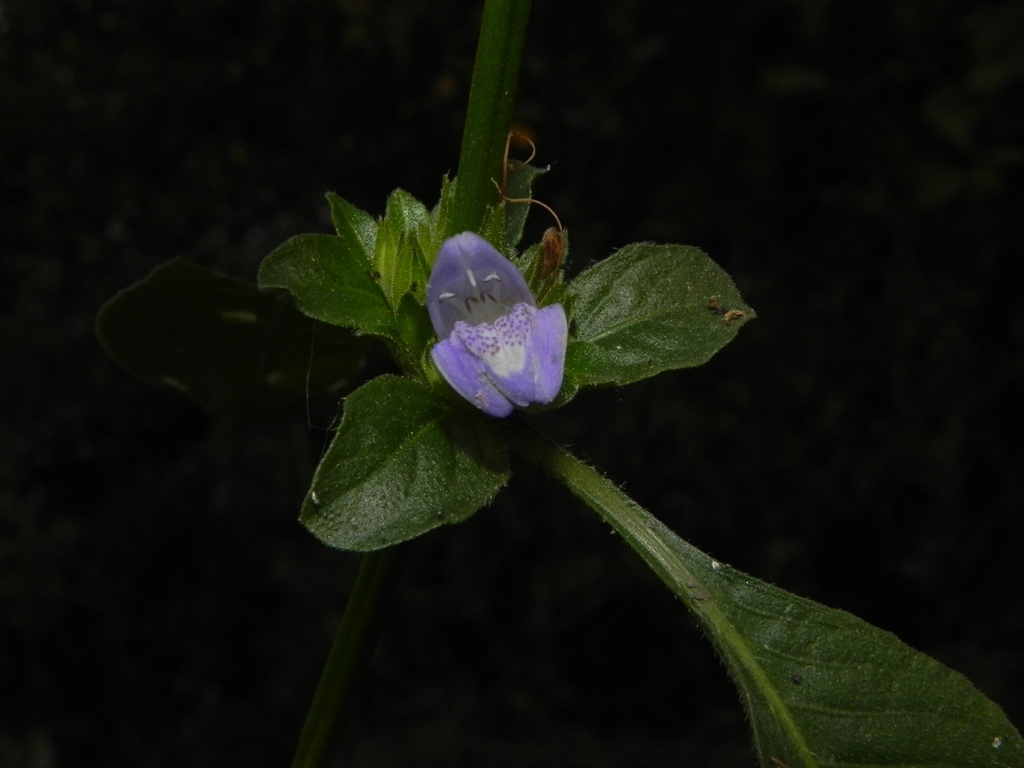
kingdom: Plantae
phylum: Tracheophyta
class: Magnoliopsida
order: Lamiales
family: Acanthaceae
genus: Hygrophila
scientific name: Hygrophila ringens
